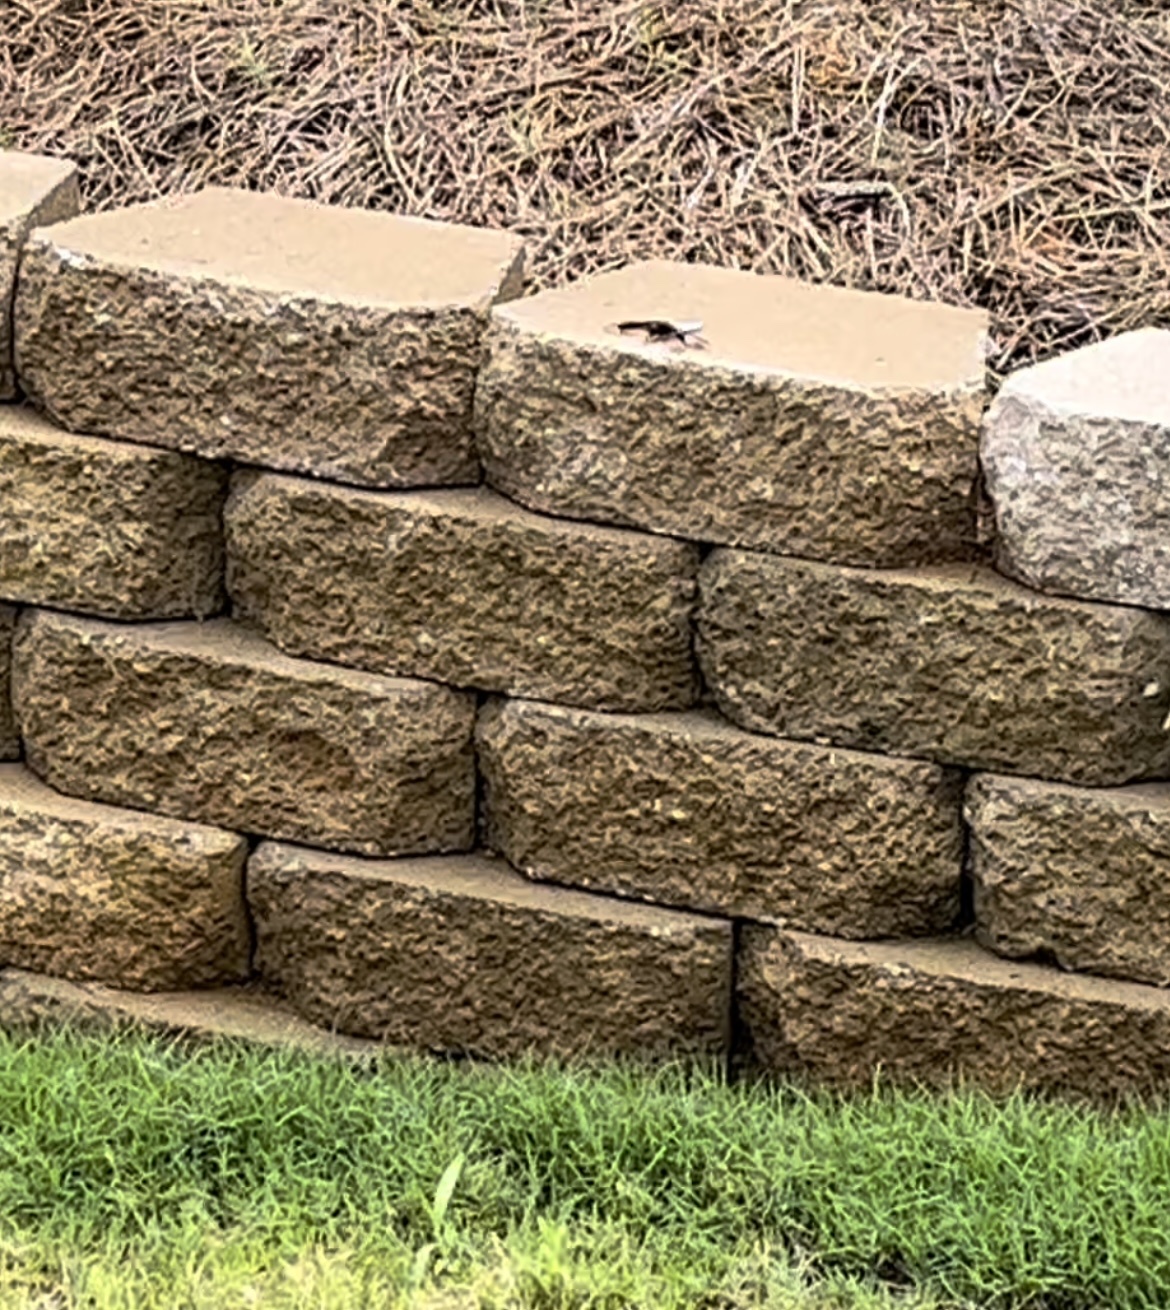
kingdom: Animalia
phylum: Arthropoda
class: Insecta
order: Odonata
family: Libellulidae
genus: Plathemis
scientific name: Plathemis lydia
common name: Common whitetail
